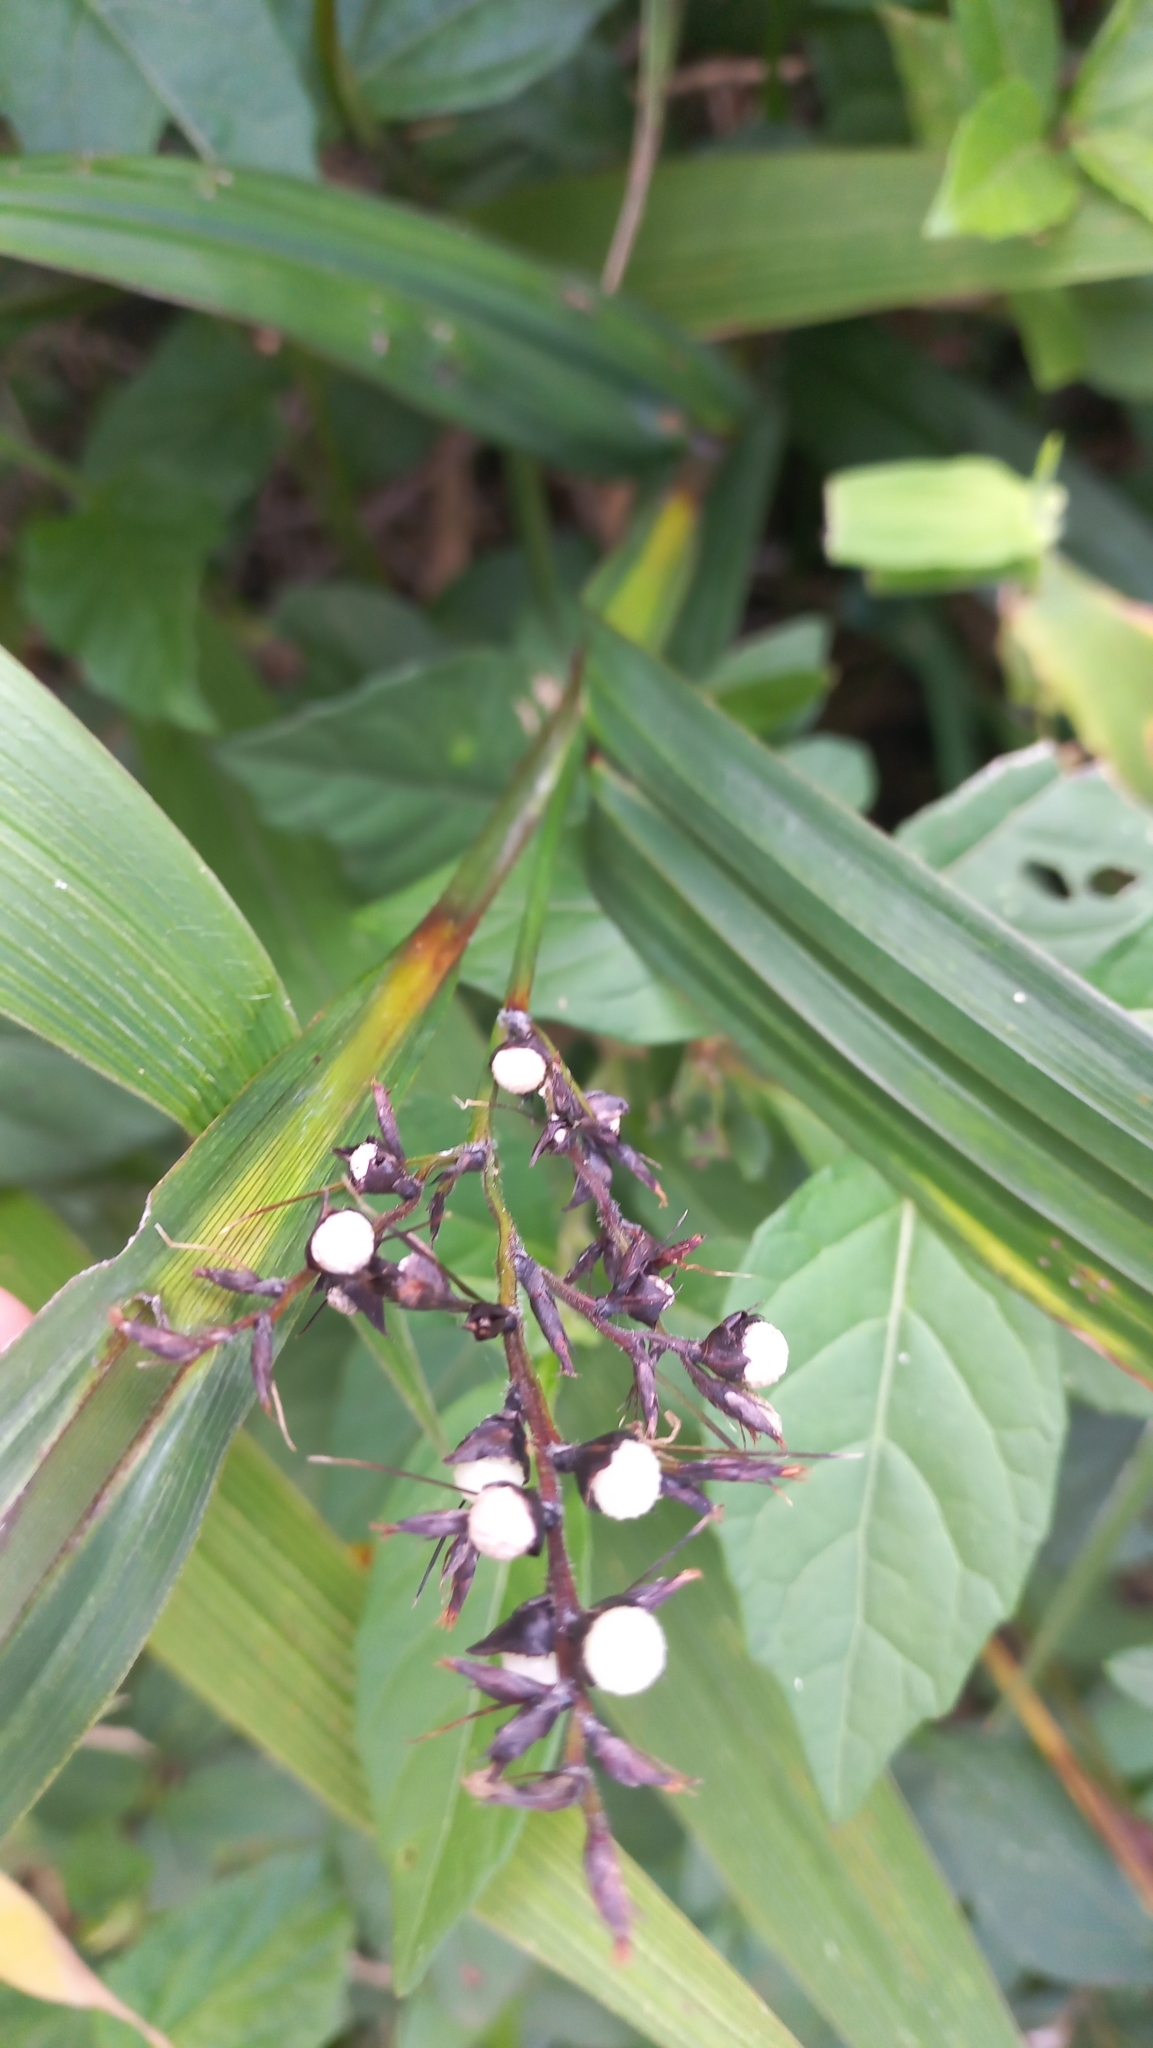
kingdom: Plantae
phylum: Tracheophyta
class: Liliopsida
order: Poales
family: Cyperaceae
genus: Scleria
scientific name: Scleria panicoides
